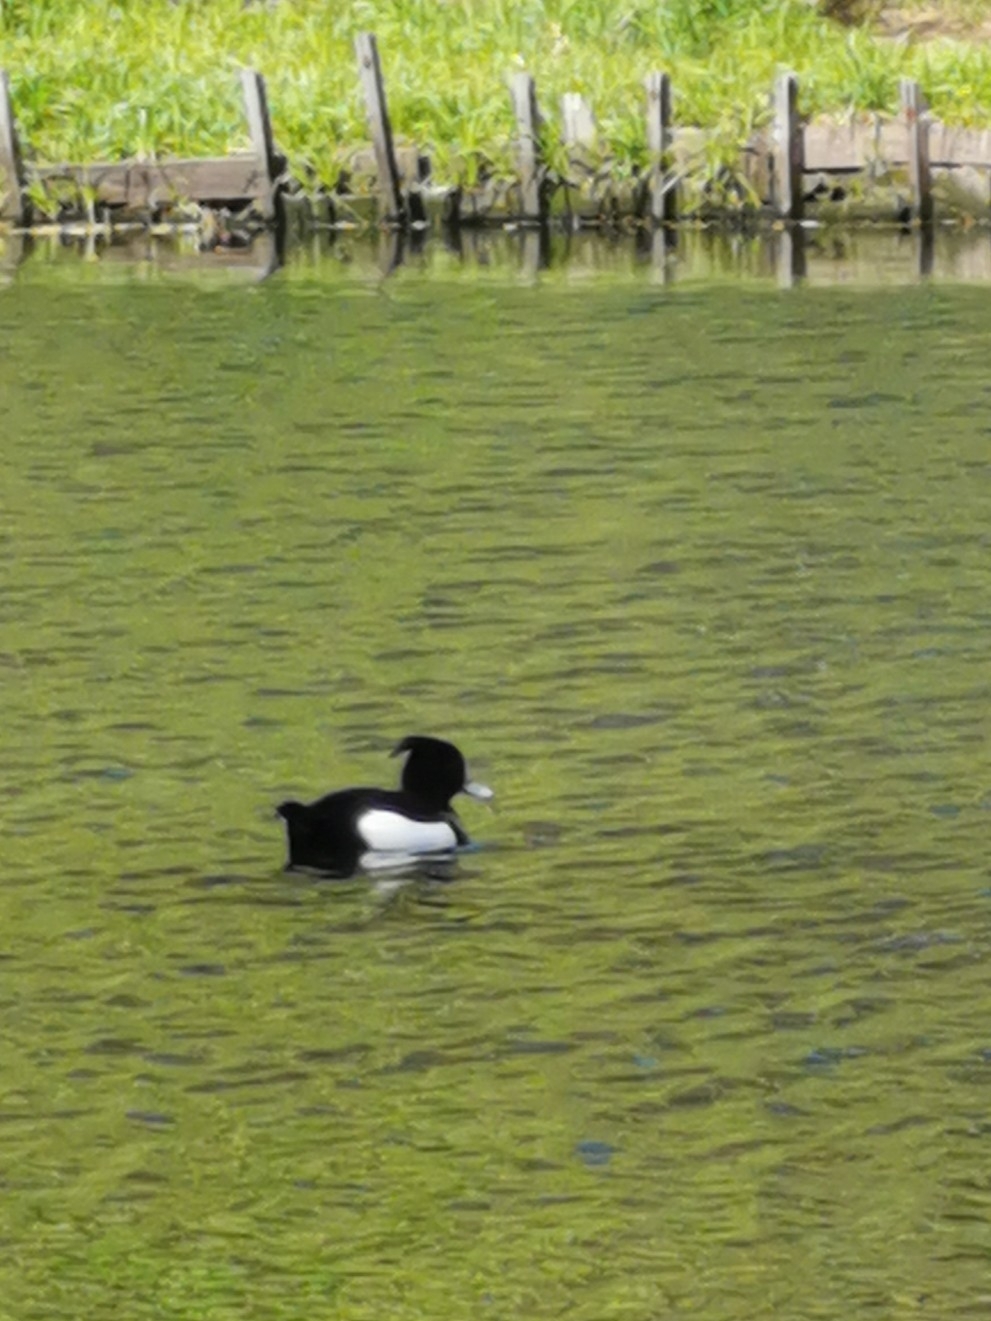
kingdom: Animalia
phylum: Chordata
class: Aves
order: Anseriformes
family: Anatidae
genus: Aythya
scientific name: Aythya fuligula
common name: Tufted duck
